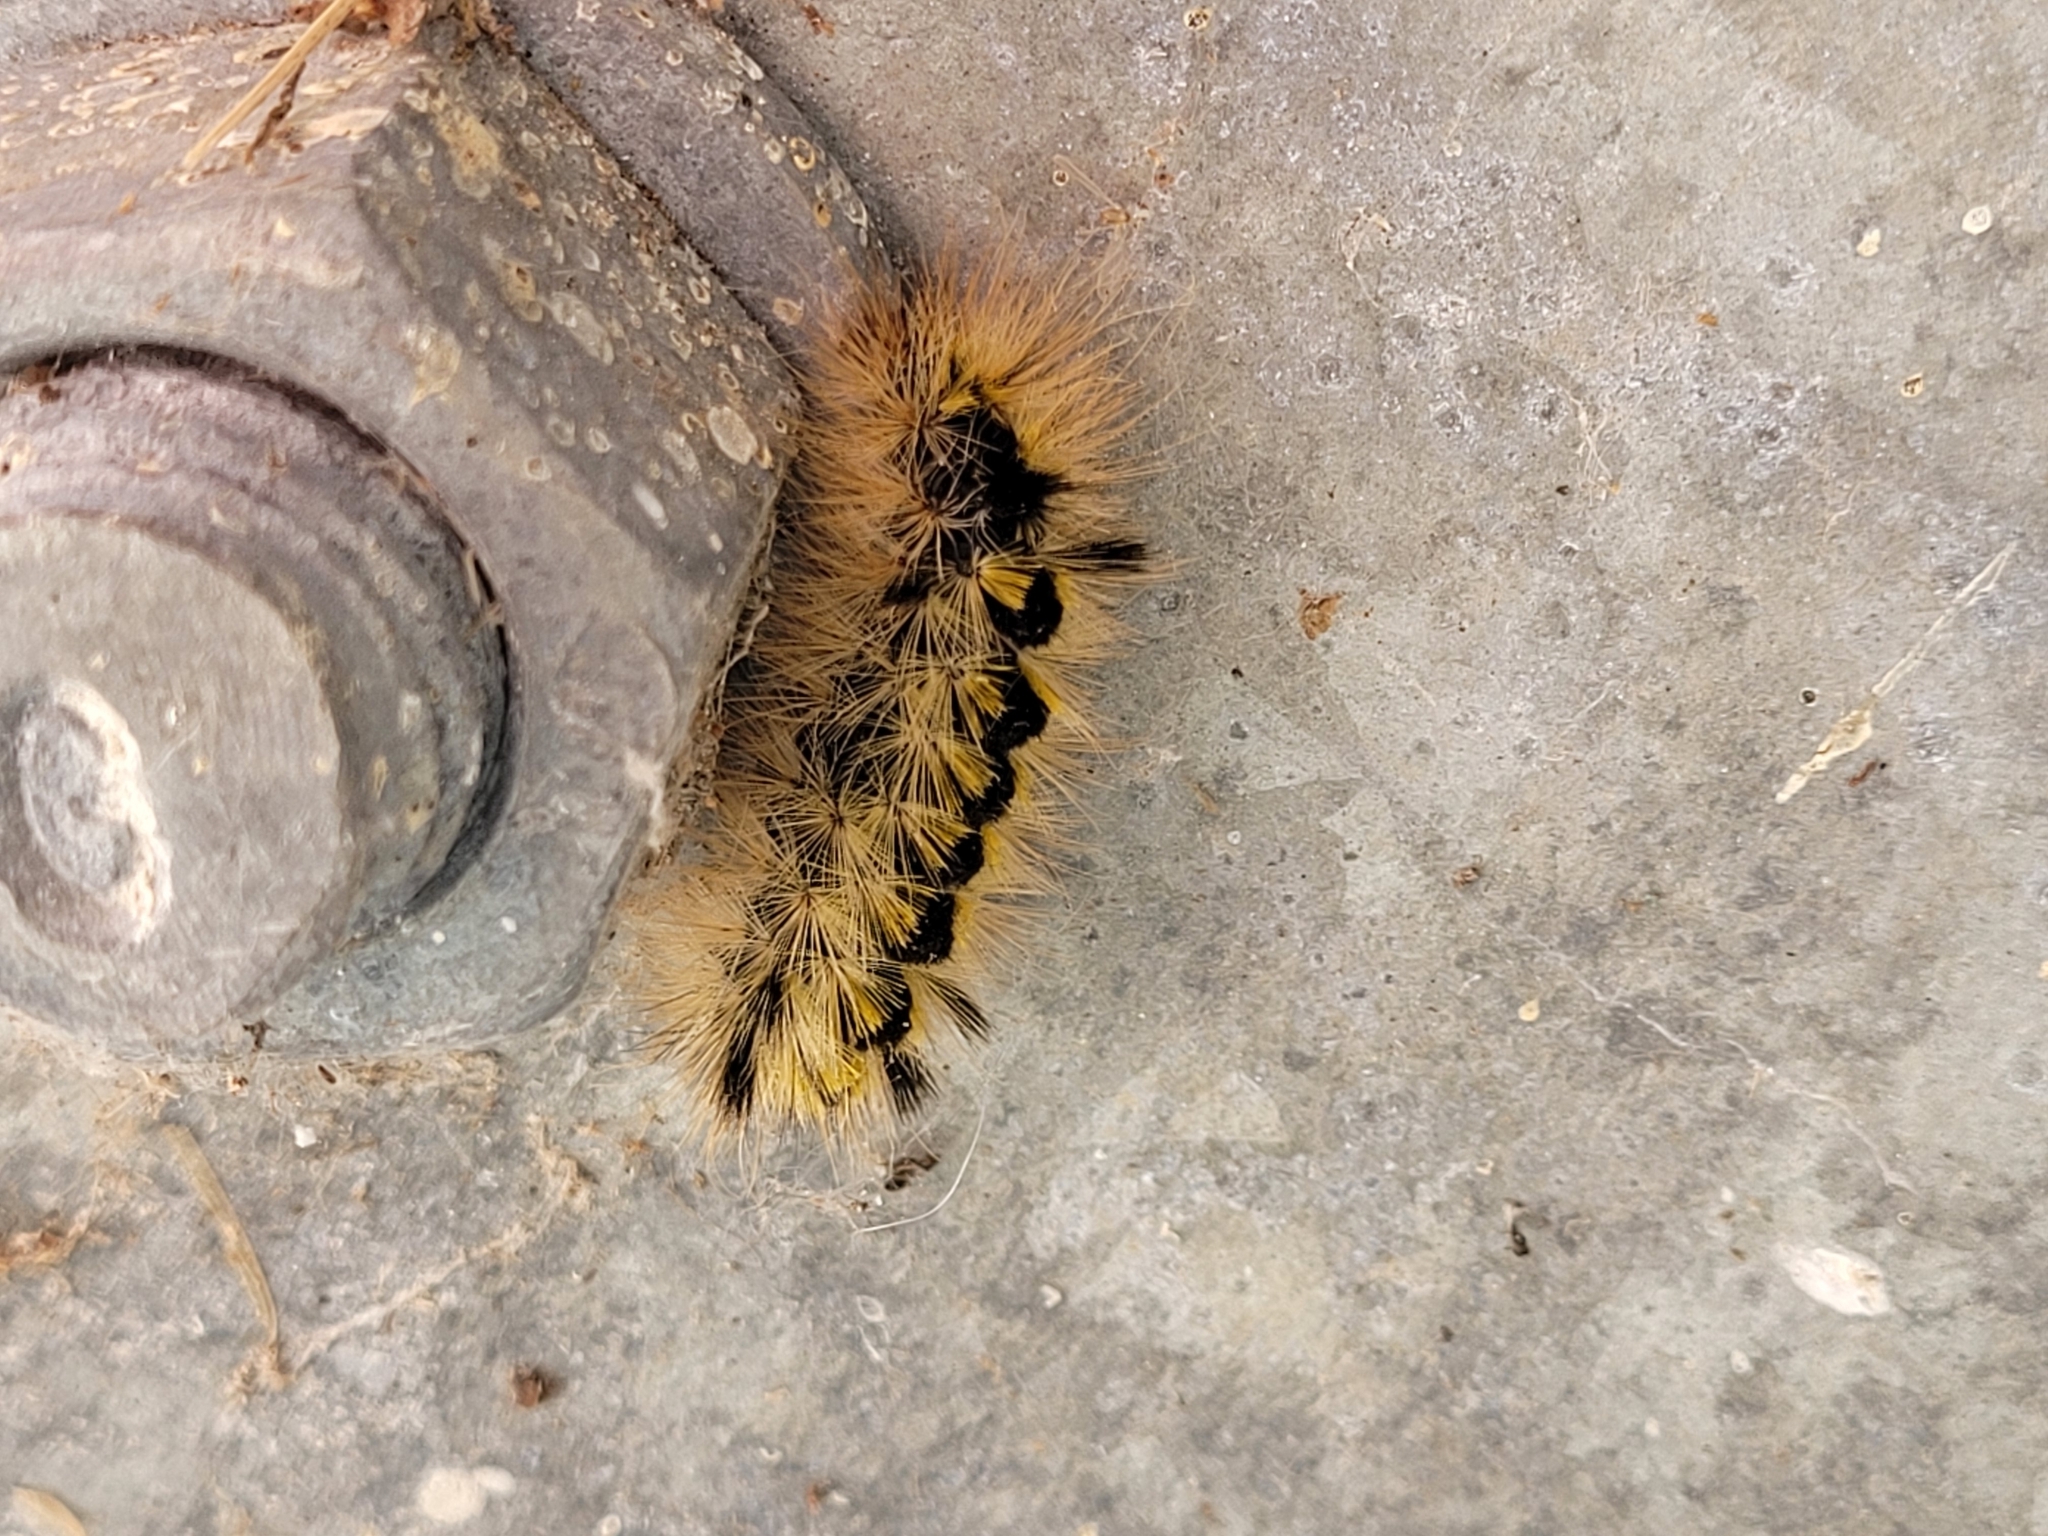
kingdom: Animalia
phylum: Arthropoda
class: Insecta
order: Lepidoptera
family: Erebidae
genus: Lophocampa
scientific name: Lophocampa argentata
